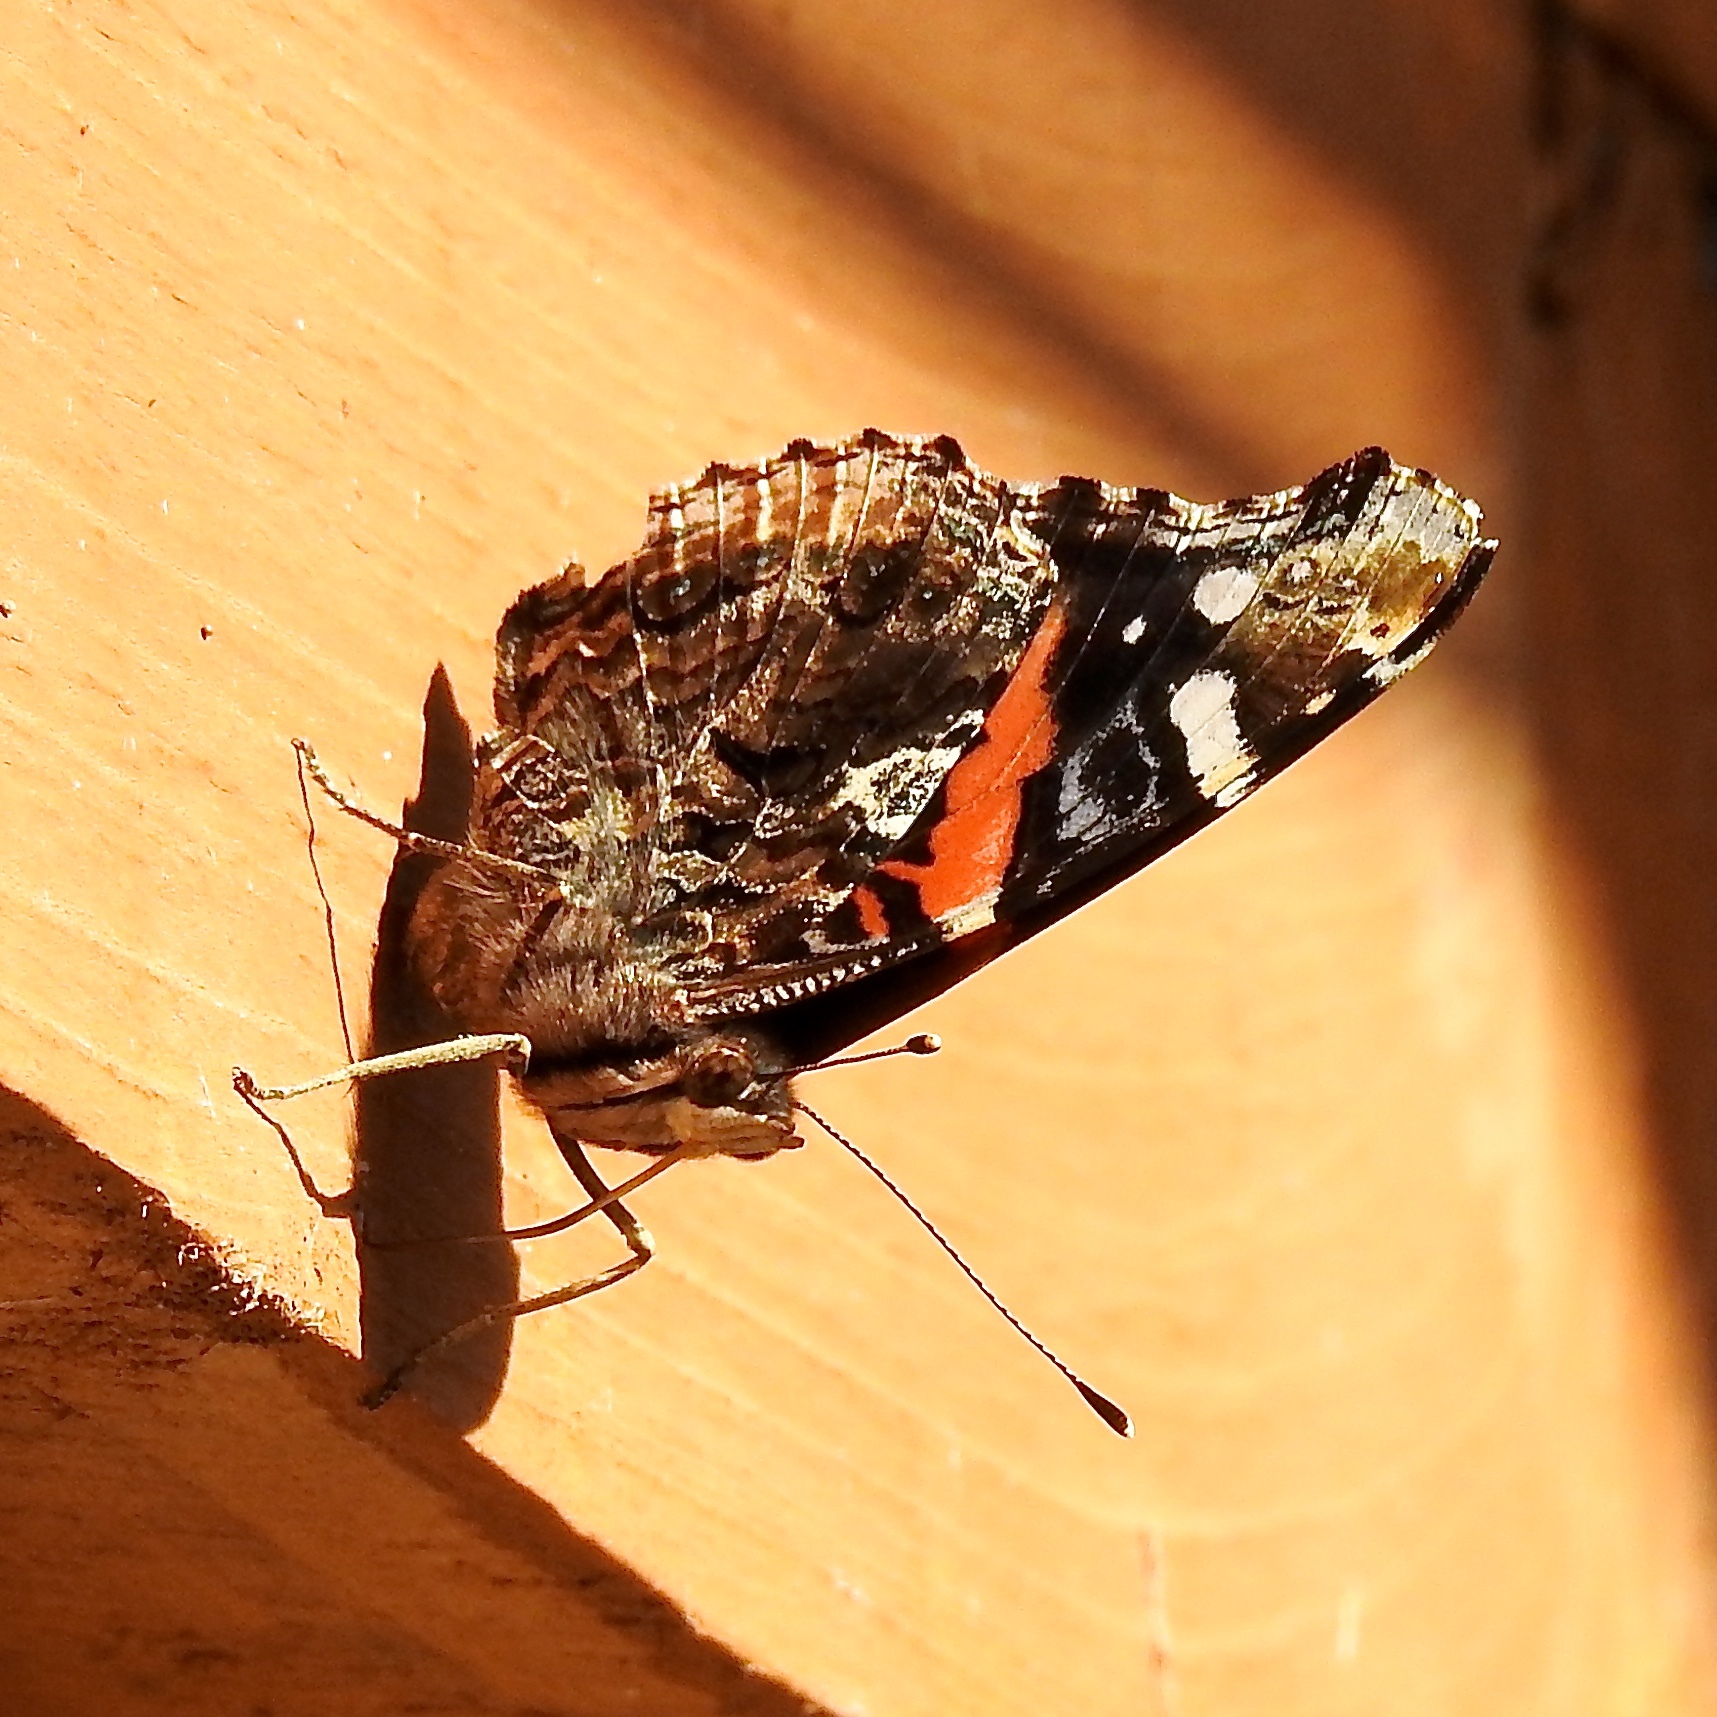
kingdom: Animalia
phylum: Arthropoda
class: Insecta
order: Lepidoptera
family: Nymphalidae
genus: Vanessa
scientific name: Vanessa atalanta
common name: Red admiral
